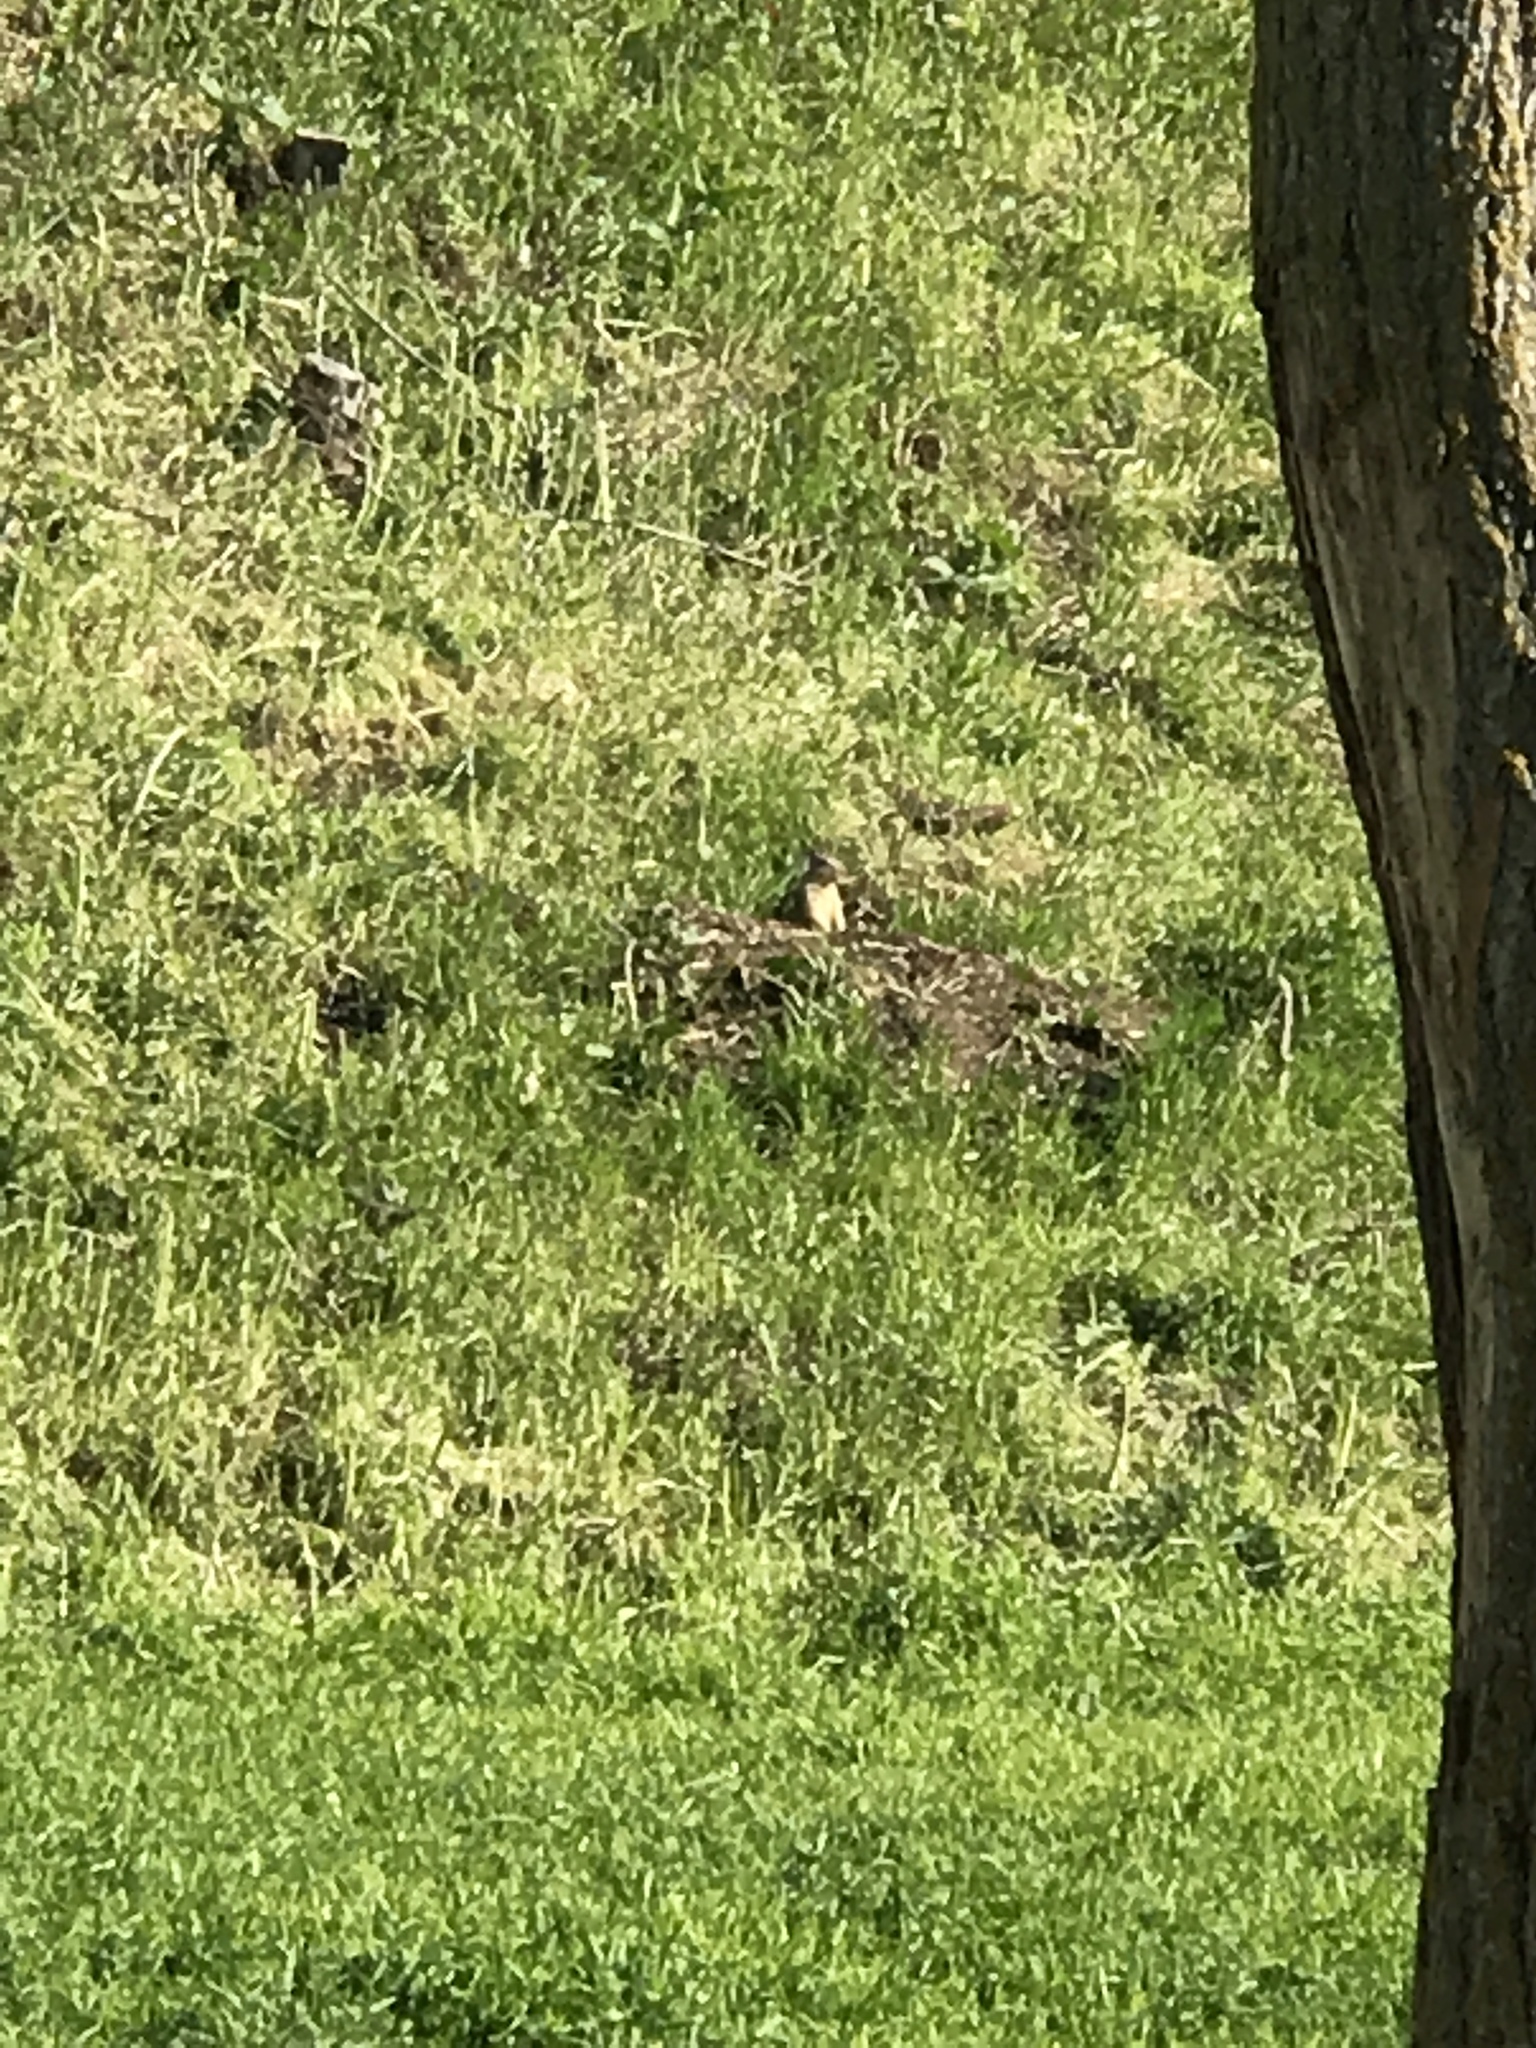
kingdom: Animalia
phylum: Chordata
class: Mammalia
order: Rodentia
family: Sciuridae
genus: Otospermophilus
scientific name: Otospermophilus beecheyi
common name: California ground squirrel
